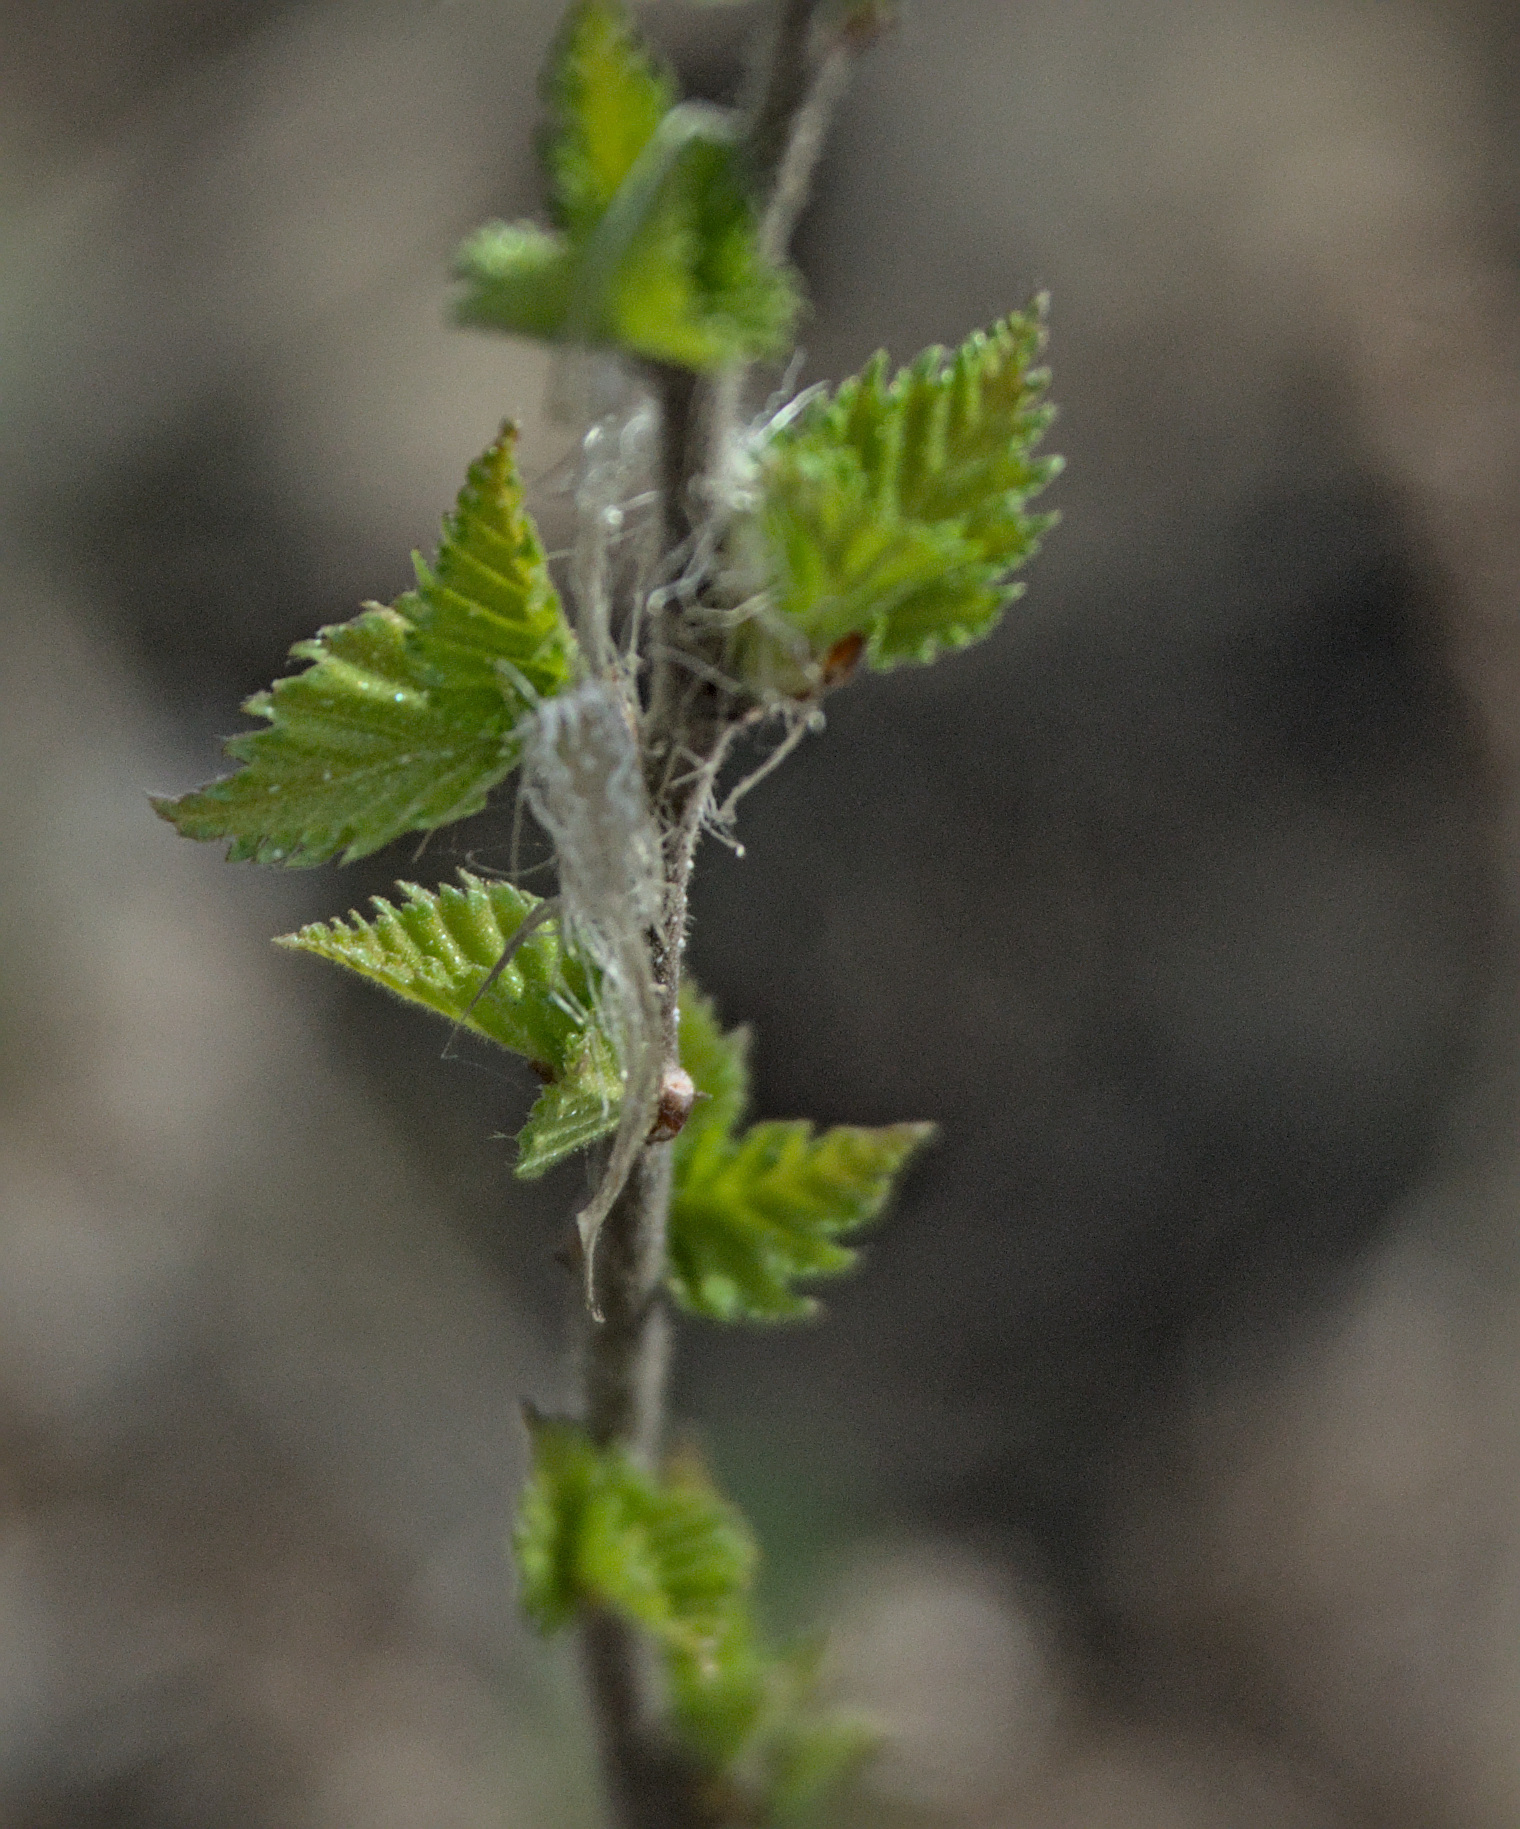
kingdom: Plantae
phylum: Tracheophyta
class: Magnoliopsida
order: Fagales
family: Betulaceae
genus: Betula
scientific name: Betula pendula
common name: Silver birch
